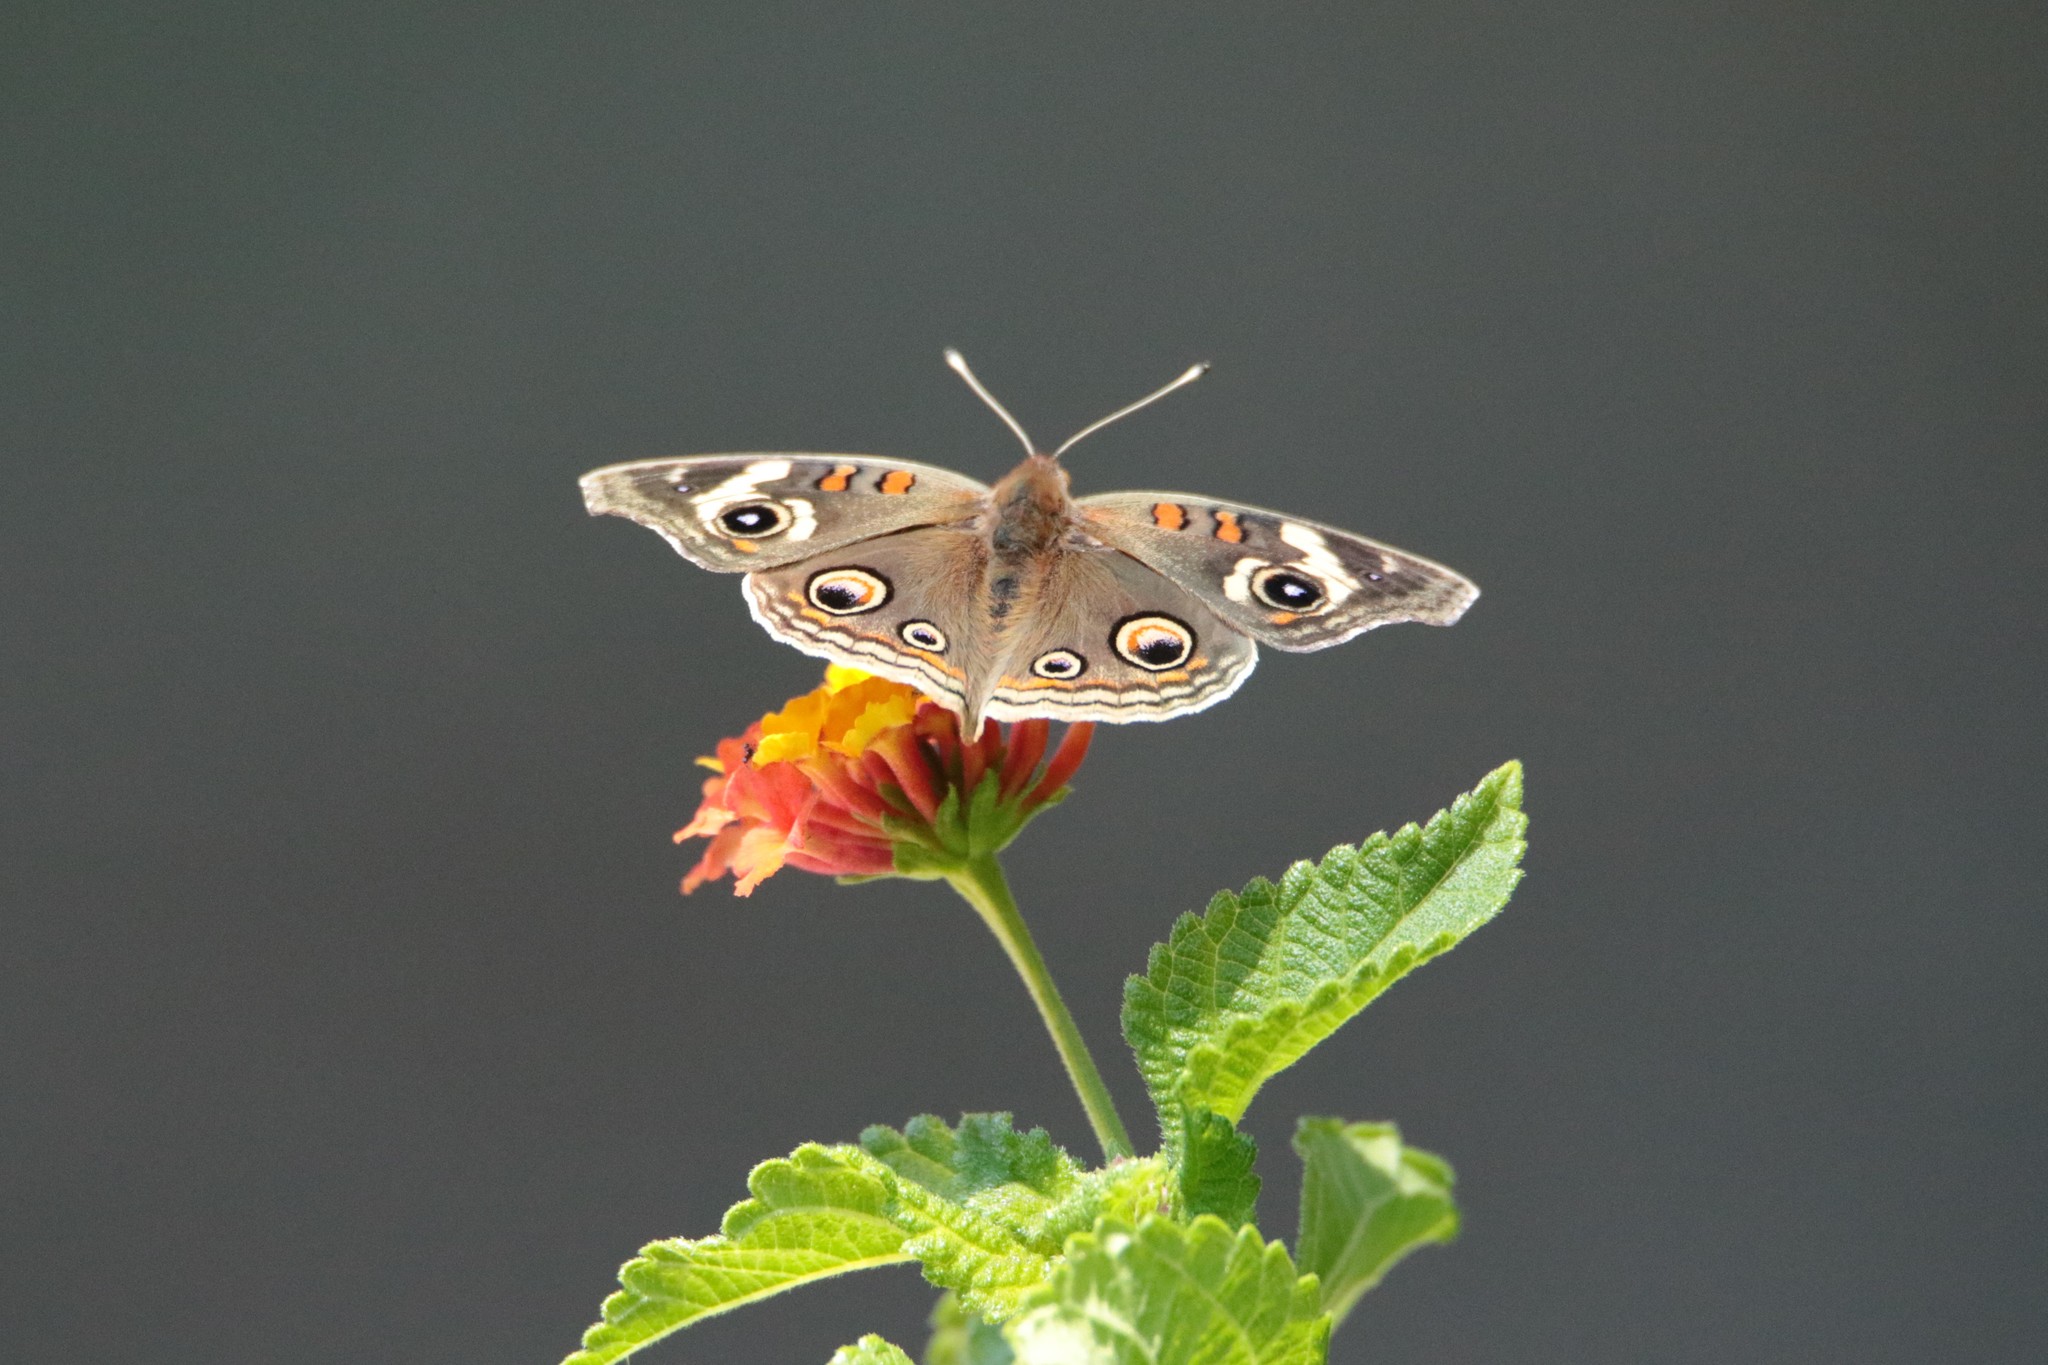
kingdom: Animalia
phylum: Arthropoda
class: Insecta
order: Lepidoptera
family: Nymphalidae
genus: Junonia
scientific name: Junonia grisea
